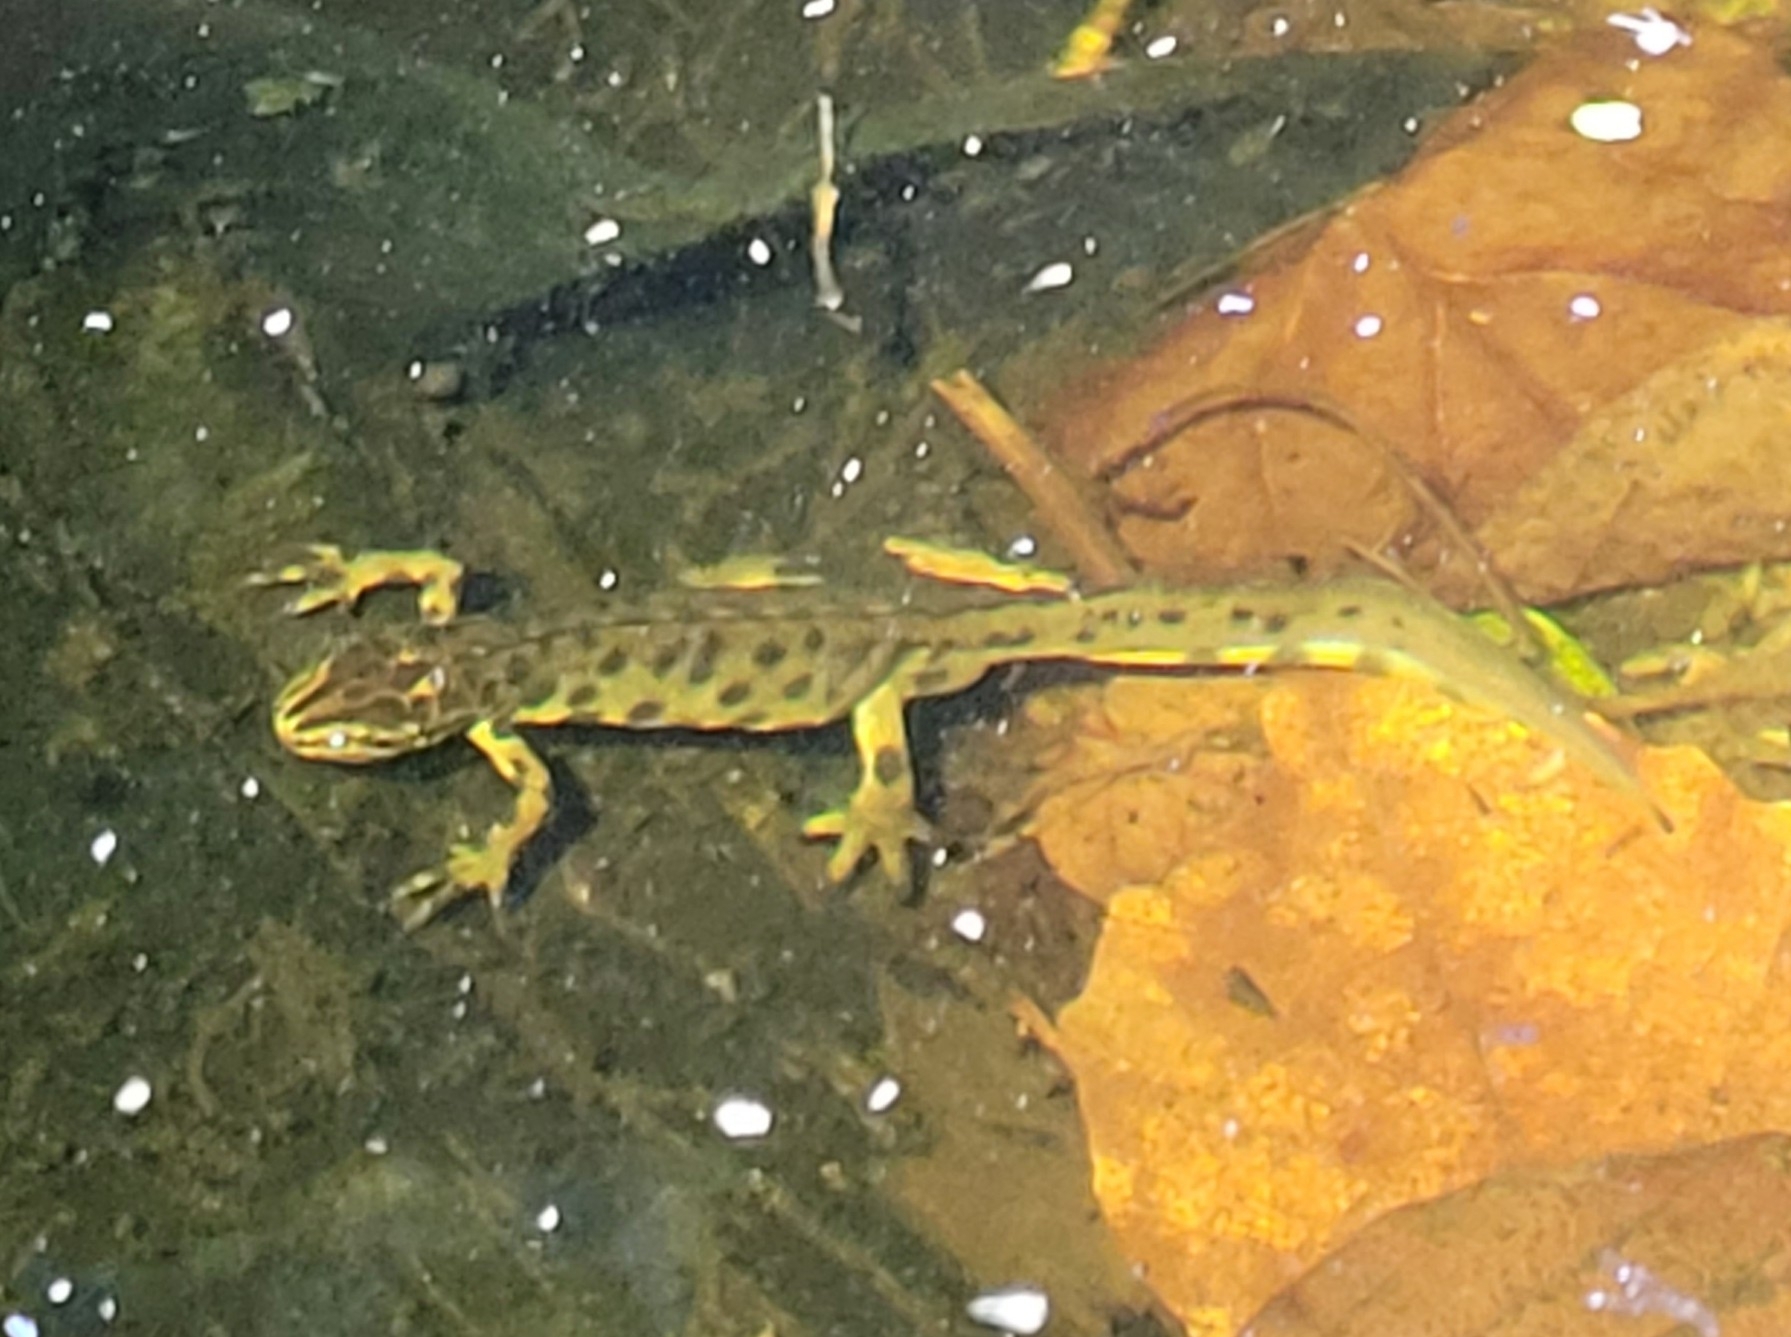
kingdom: Animalia
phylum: Chordata
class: Amphibia
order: Caudata
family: Salamandridae
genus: Lissotriton
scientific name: Lissotriton vulgaris
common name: Smooth newt
